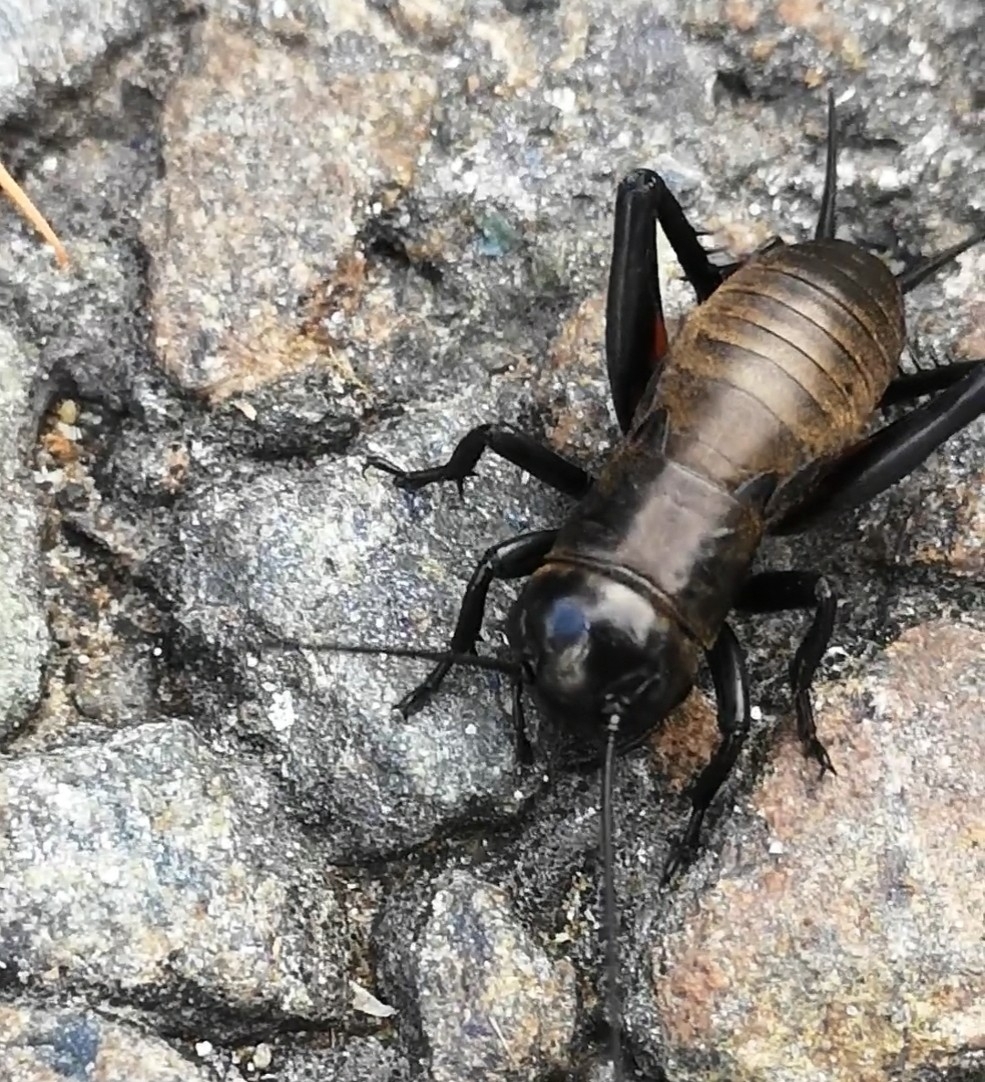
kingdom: Animalia
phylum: Arthropoda
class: Insecta
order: Orthoptera
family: Gryllidae
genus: Gryllus
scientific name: Gryllus campestris
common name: Field cricket
